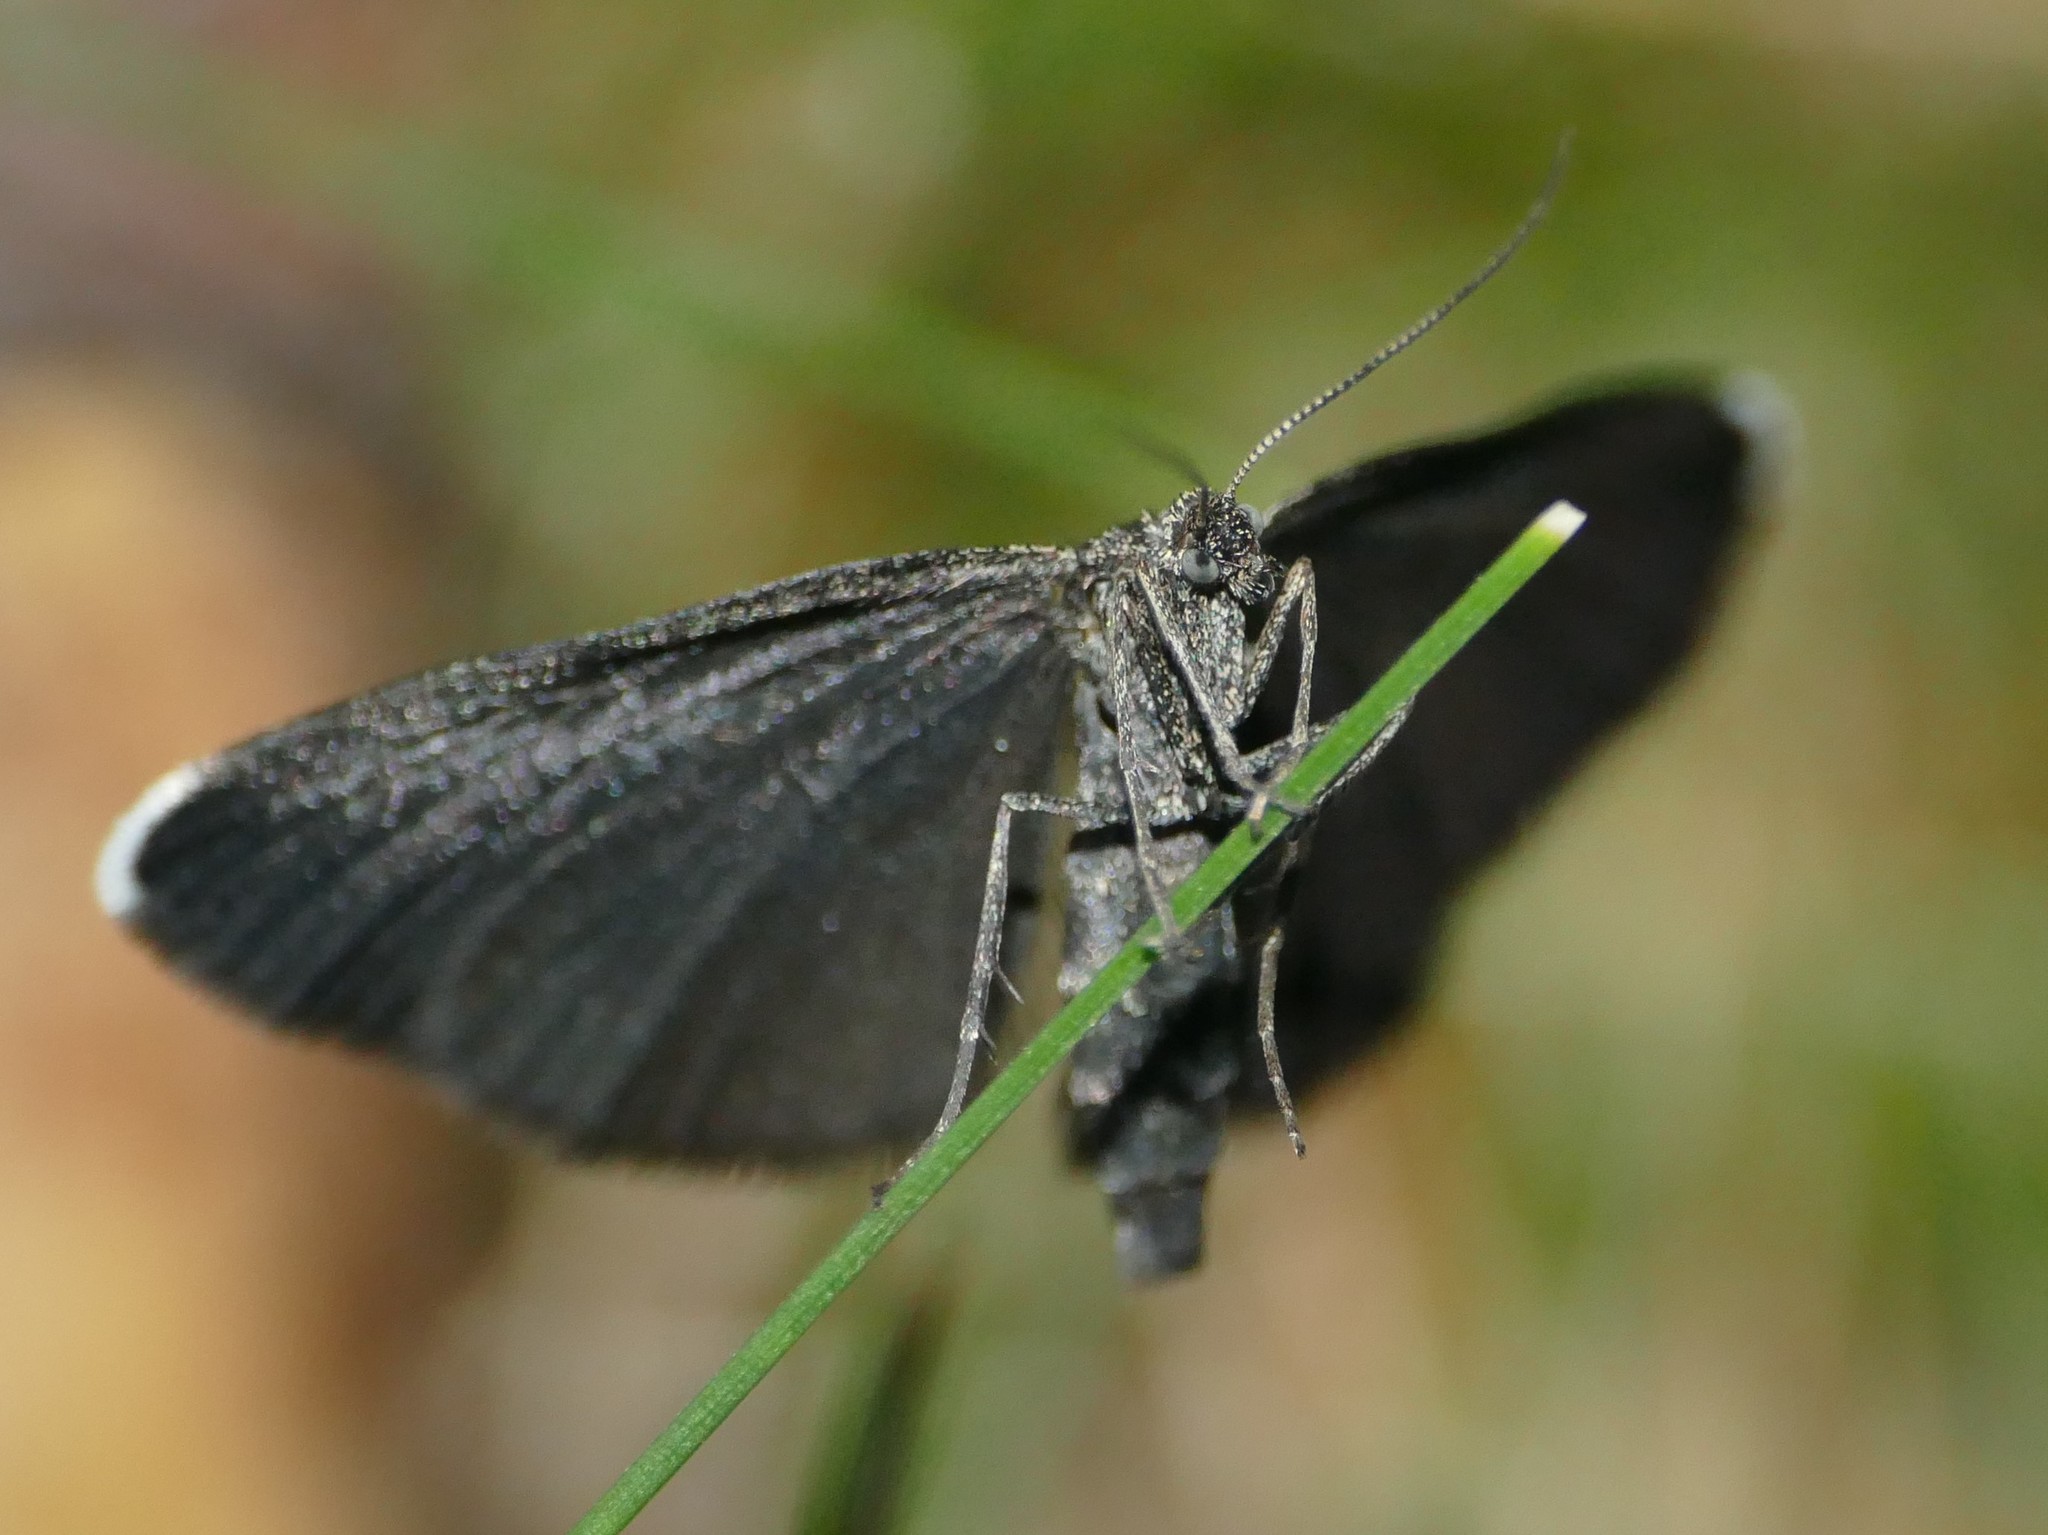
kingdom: Animalia
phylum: Arthropoda
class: Insecta
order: Lepidoptera
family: Geometridae
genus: Odezia
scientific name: Odezia atrata
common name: Chimney sweeper
